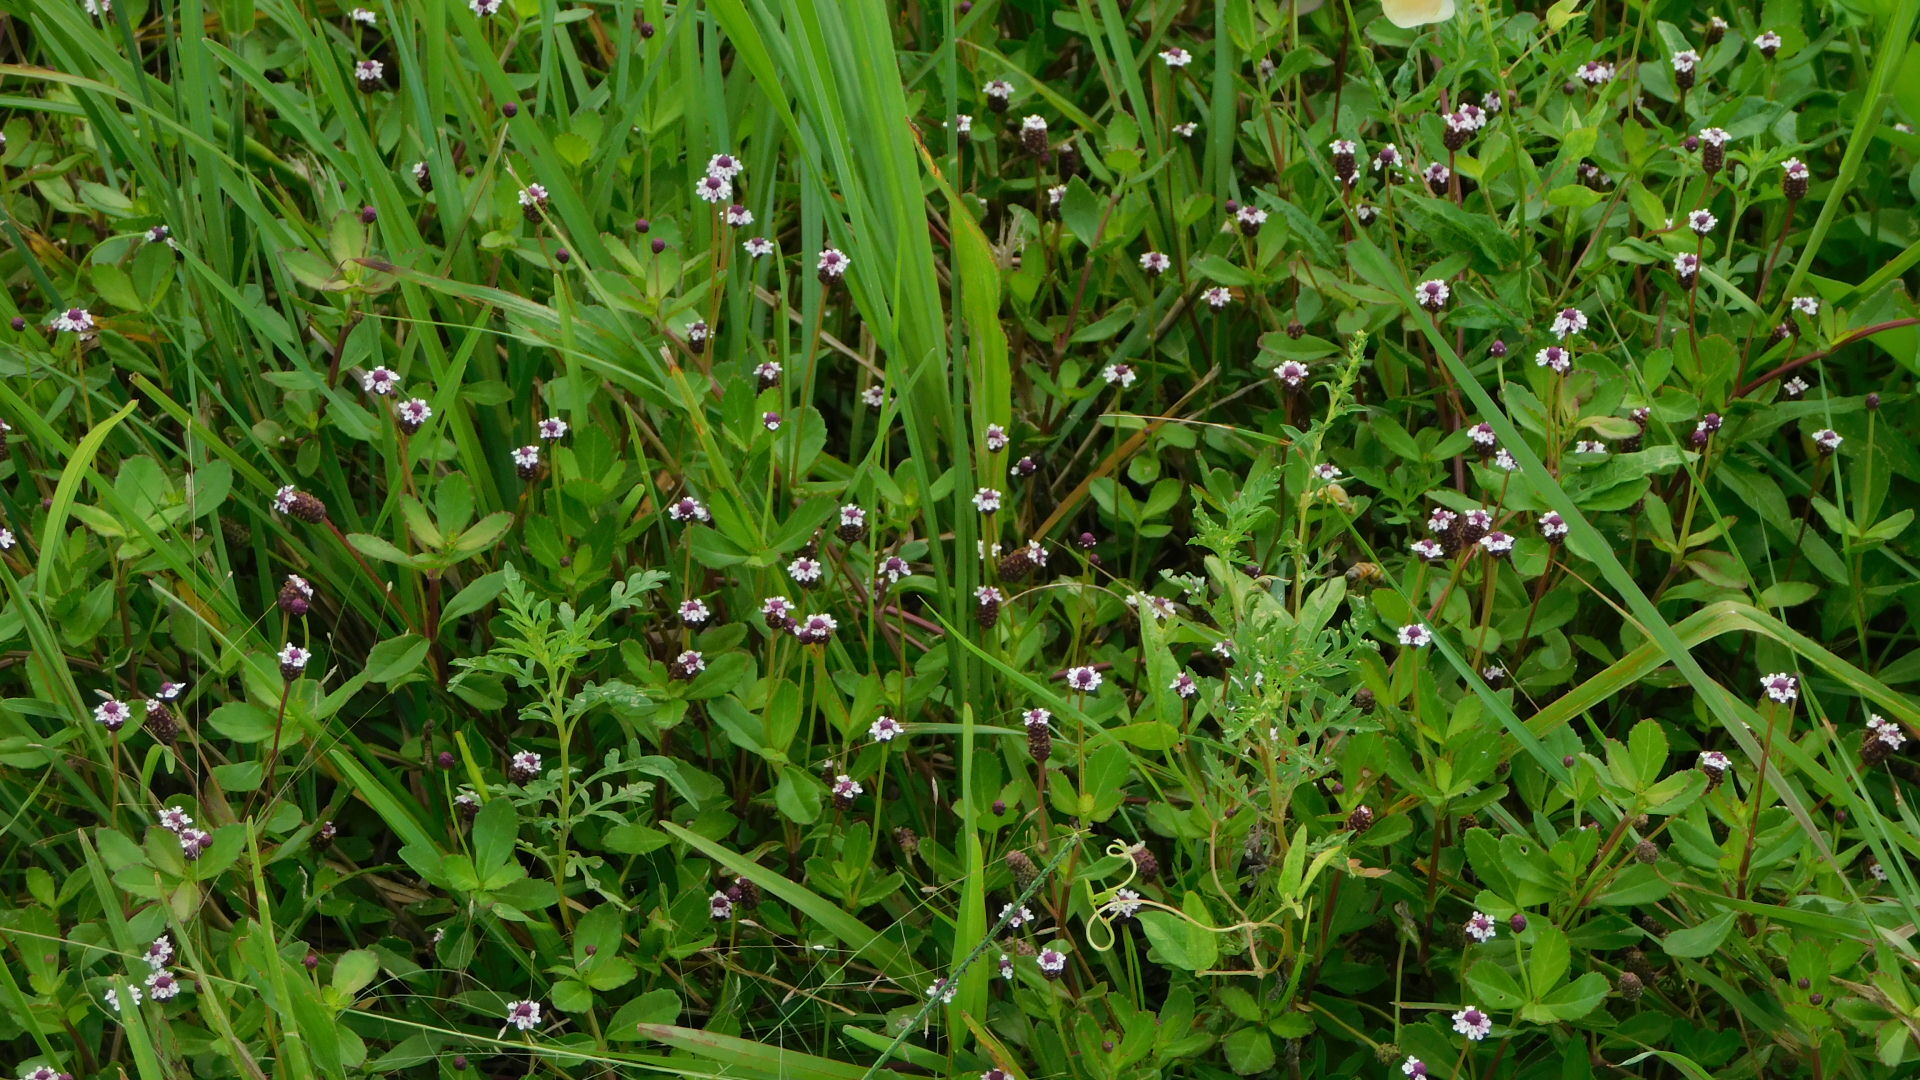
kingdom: Plantae
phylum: Tracheophyta
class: Magnoliopsida
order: Lamiales
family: Verbenaceae
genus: Phyla
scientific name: Phyla nodiflora
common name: Frogfruit
